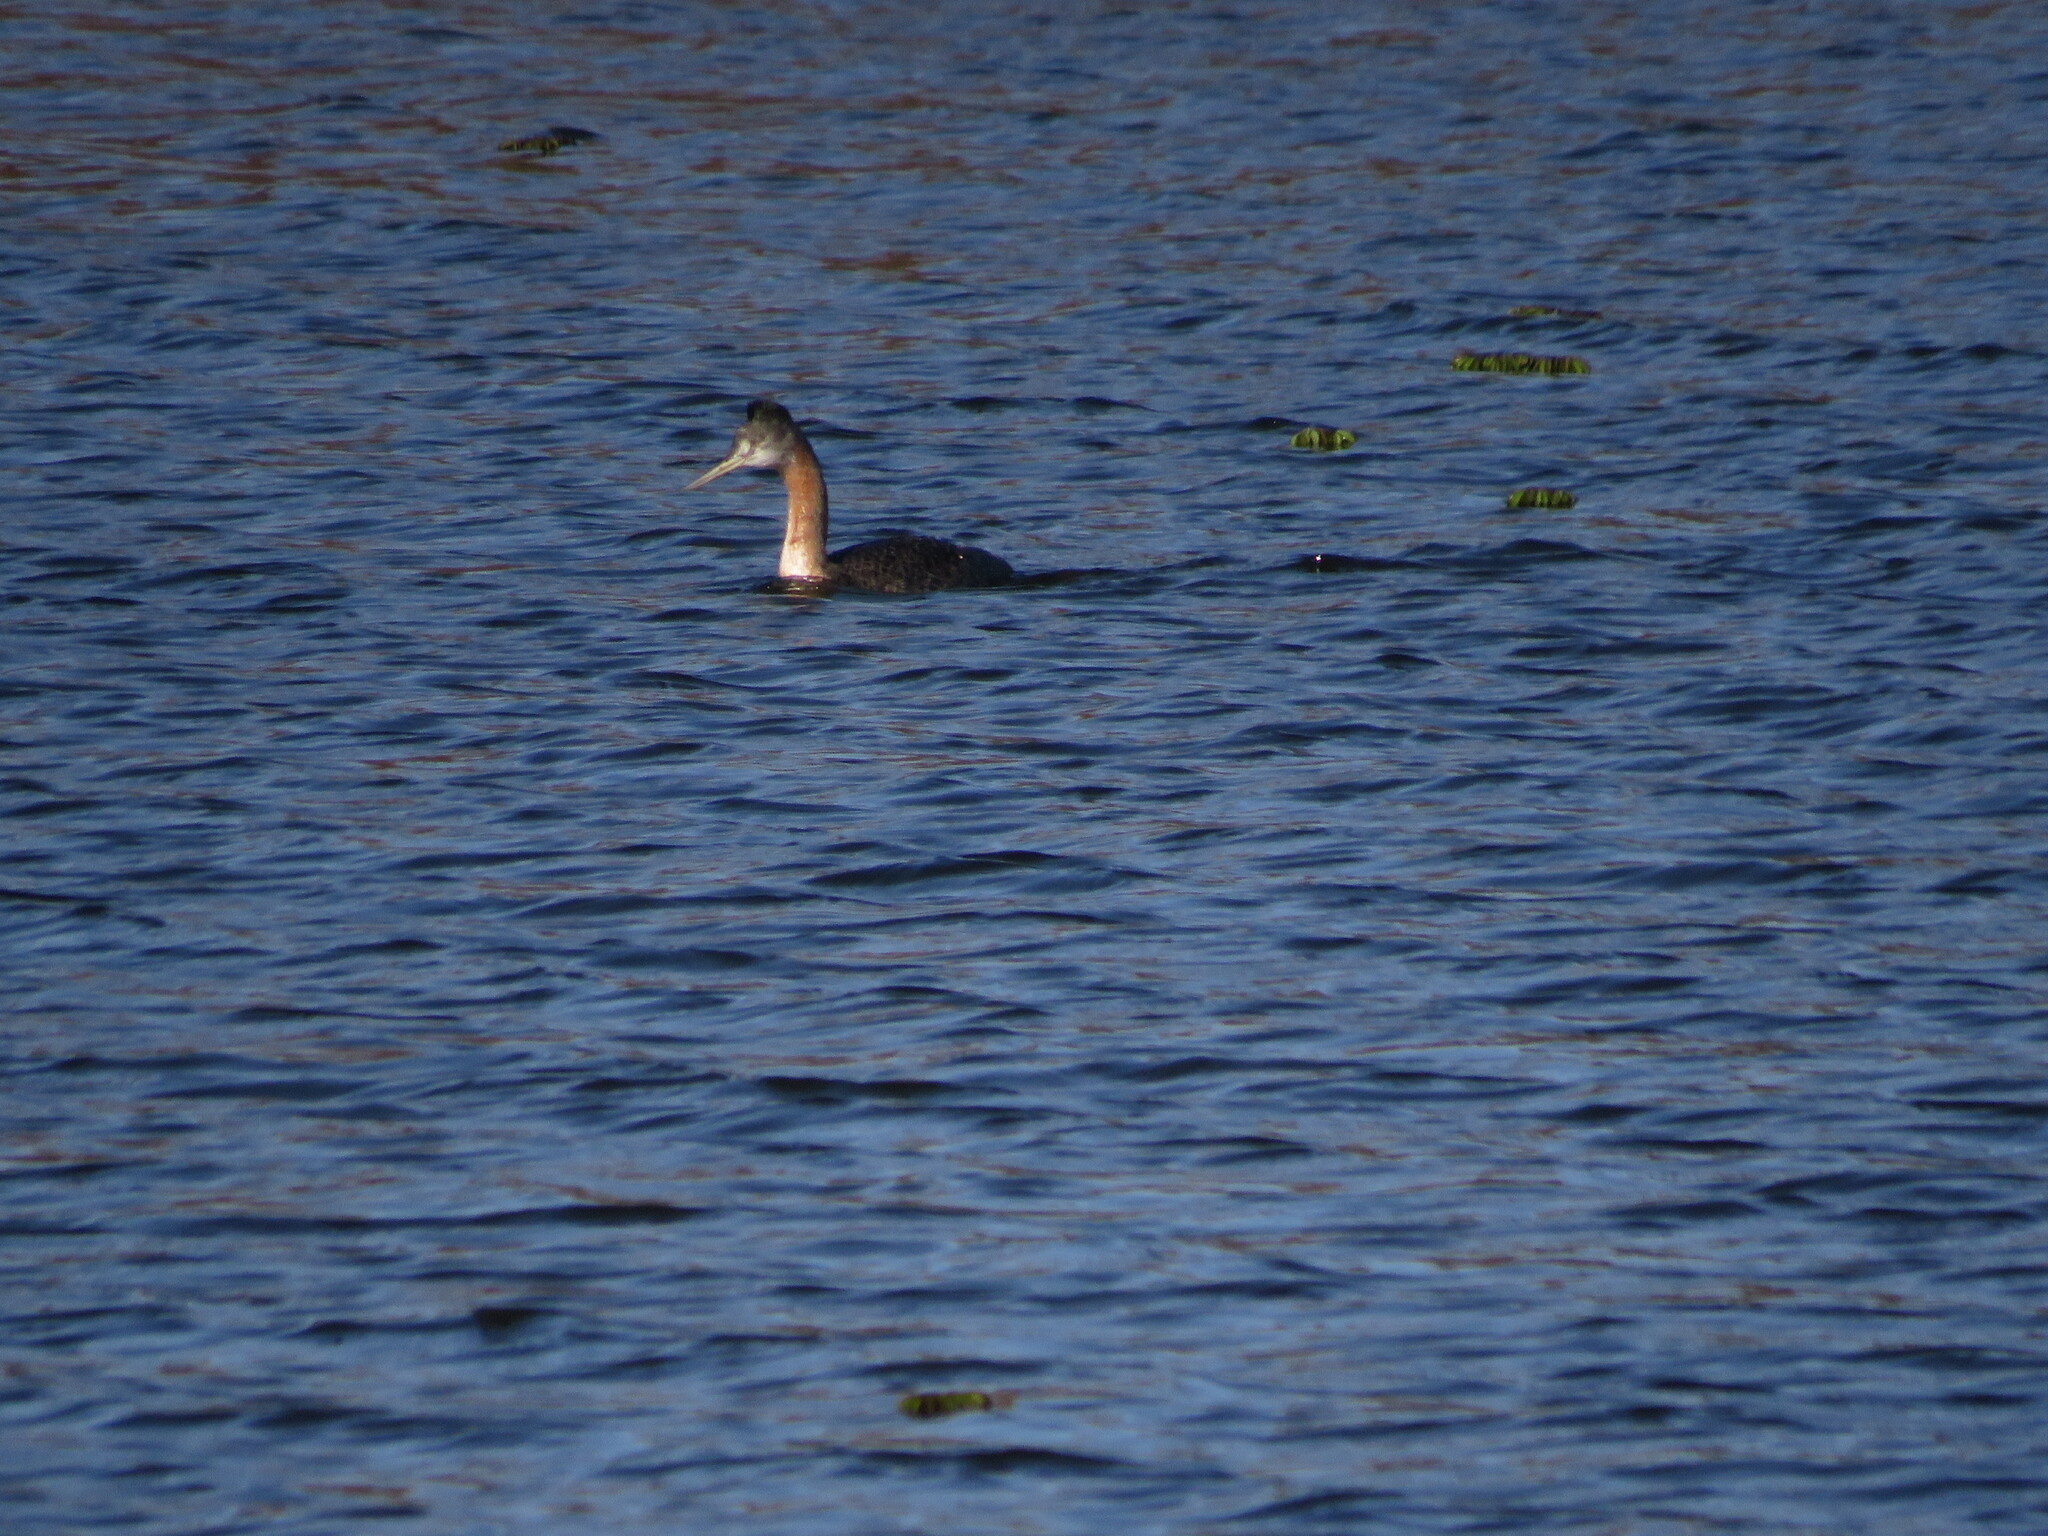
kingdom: Animalia
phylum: Chordata
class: Aves
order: Podicipediformes
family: Podicipedidae
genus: Podiceps
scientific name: Podiceps major
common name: Great grebe
